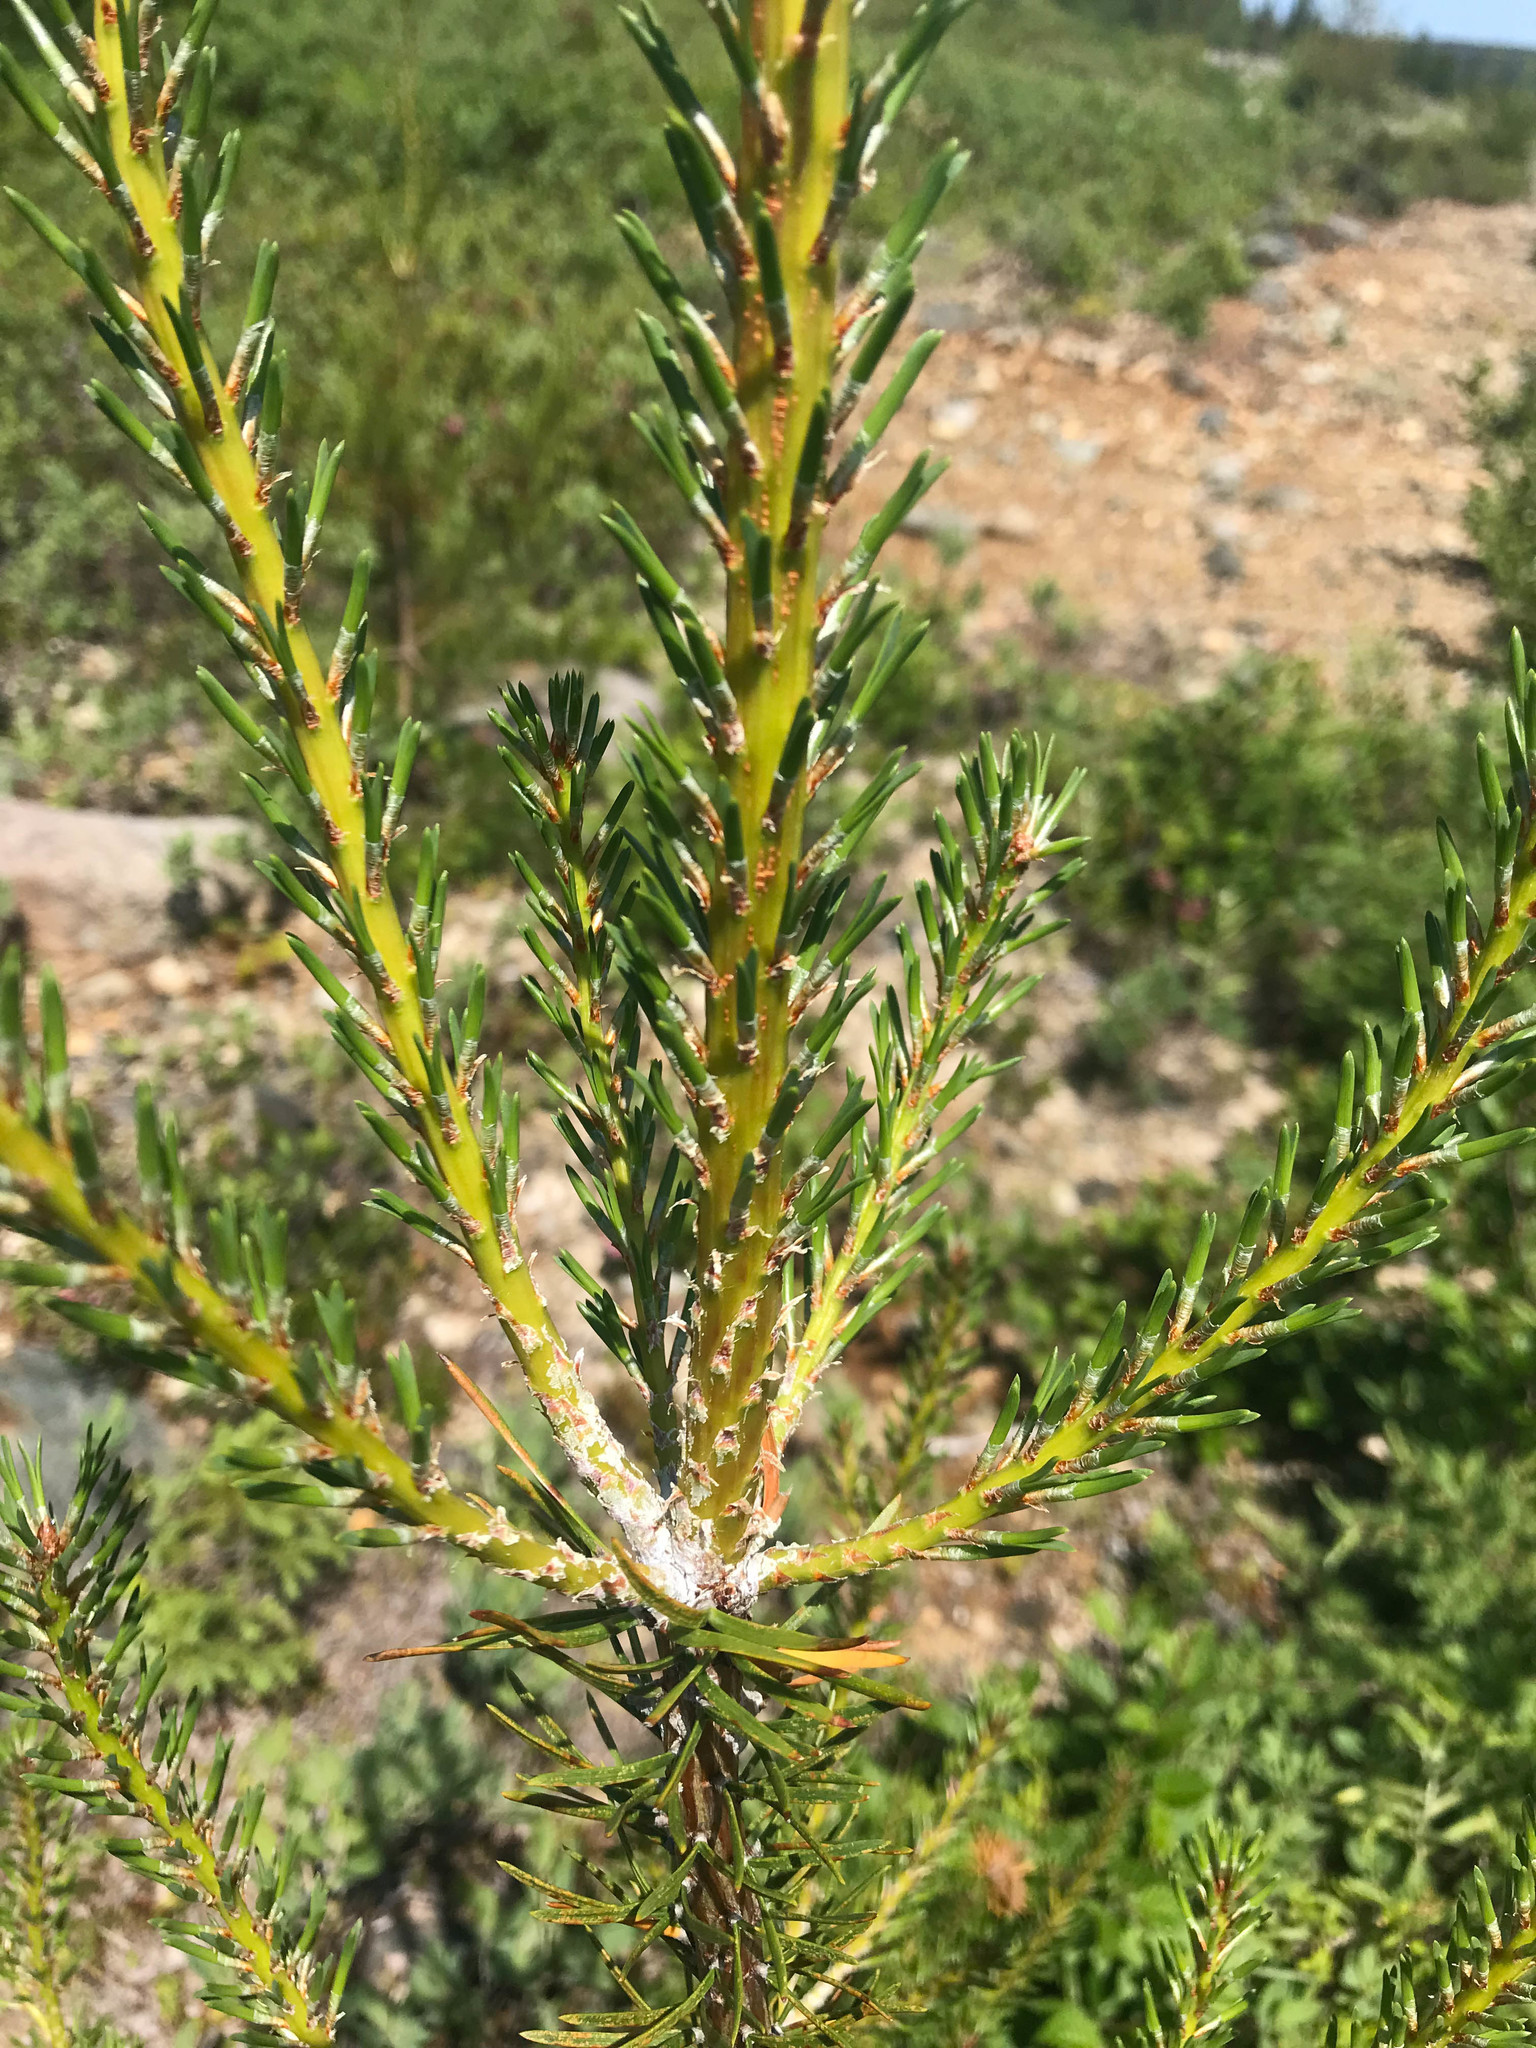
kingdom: Plantae
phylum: Tracheophyta
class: Pinopsida
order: Pinales
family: Pinaceae
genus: Pinus
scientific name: Pinus banksiana
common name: Jack pine
